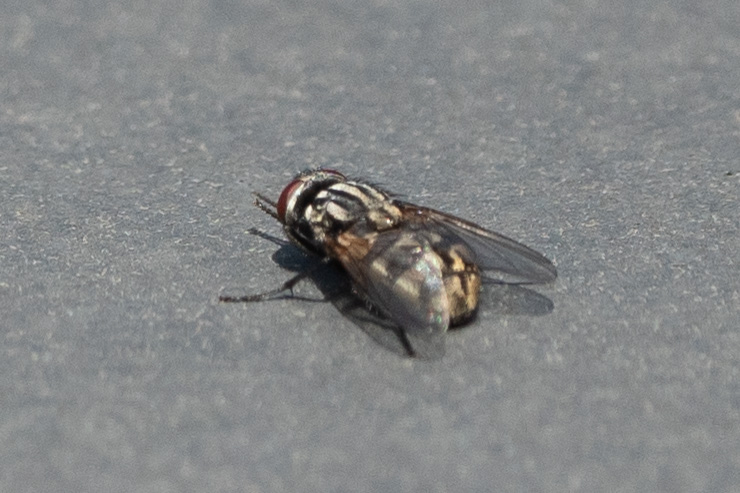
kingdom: Animalia
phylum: Arthropoda
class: Insecta
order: Diptera
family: Muscidae
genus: Musca
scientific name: Musca autumnalis
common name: Face fly
